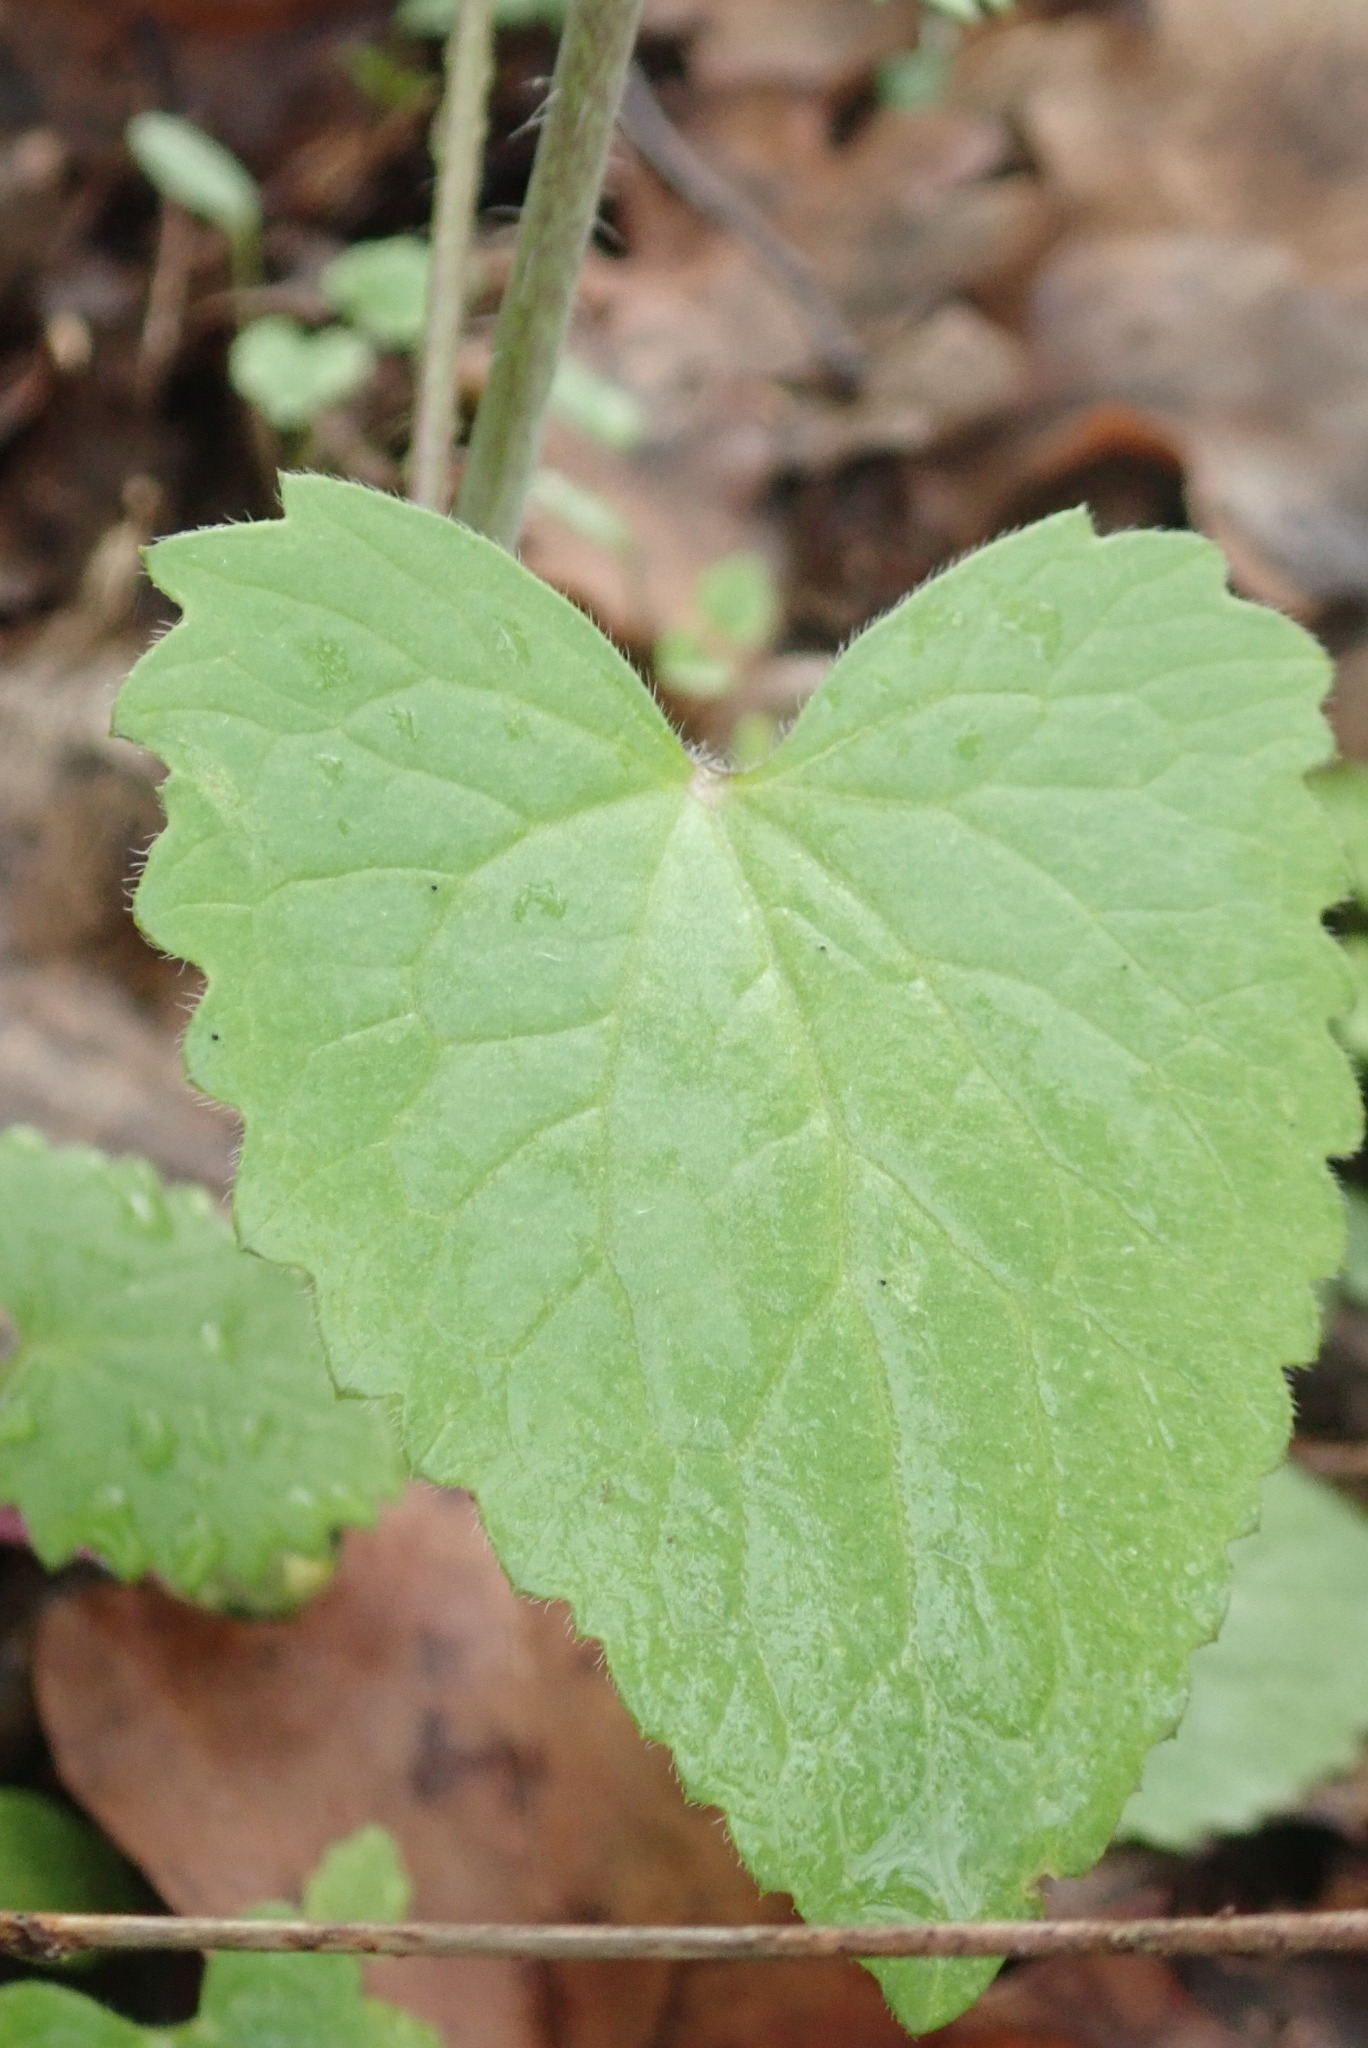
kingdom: Plantae
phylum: Tracheophyta
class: Magnoliopsida
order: Brassicales
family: Brassicaceae
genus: Lunaria
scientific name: Lunaria annua
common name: Honesty
